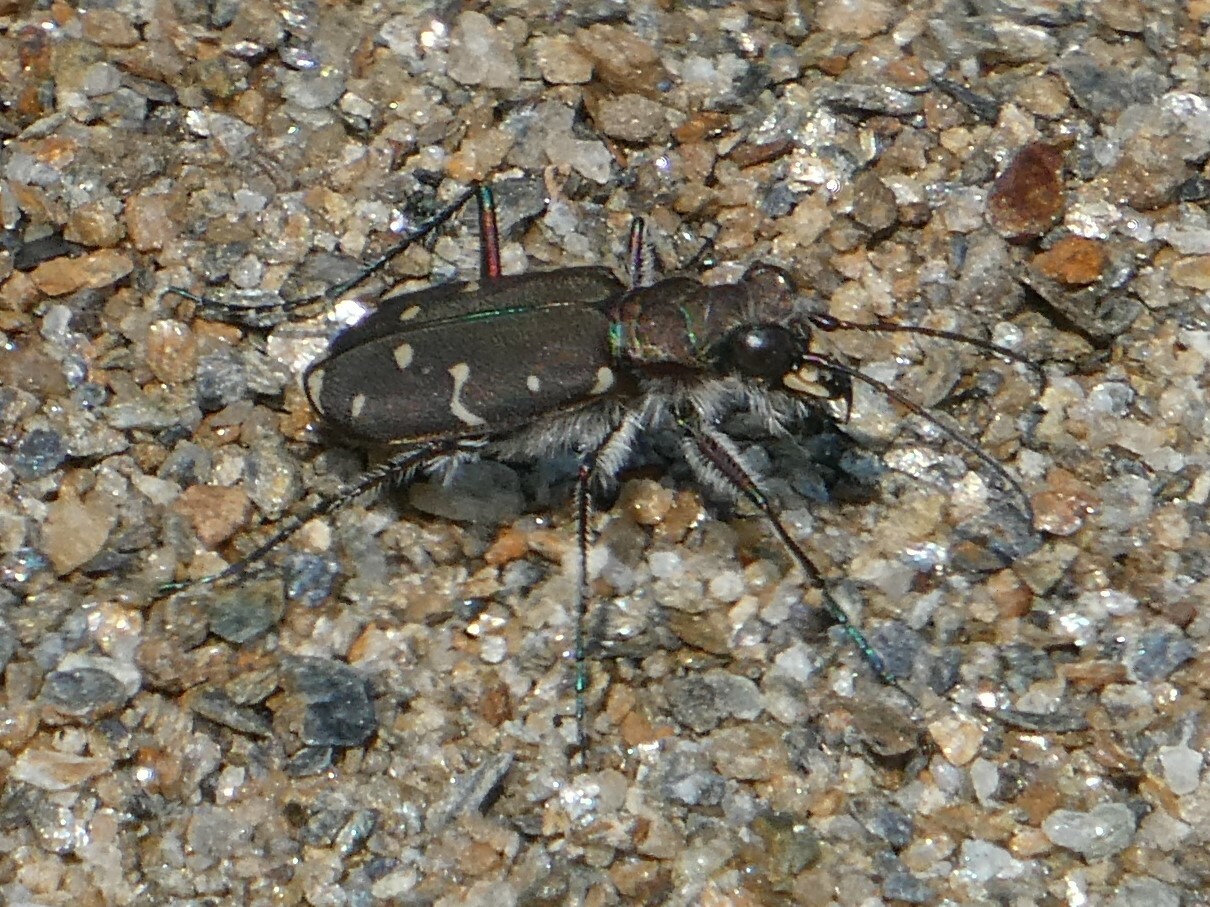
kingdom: Animalia
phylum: Arthropoda
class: Insecta
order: Coleoptera
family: Carabidae
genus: Cicindela
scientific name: Cicindela duodecimguttata
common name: Twelve-spotted tiger beetle
